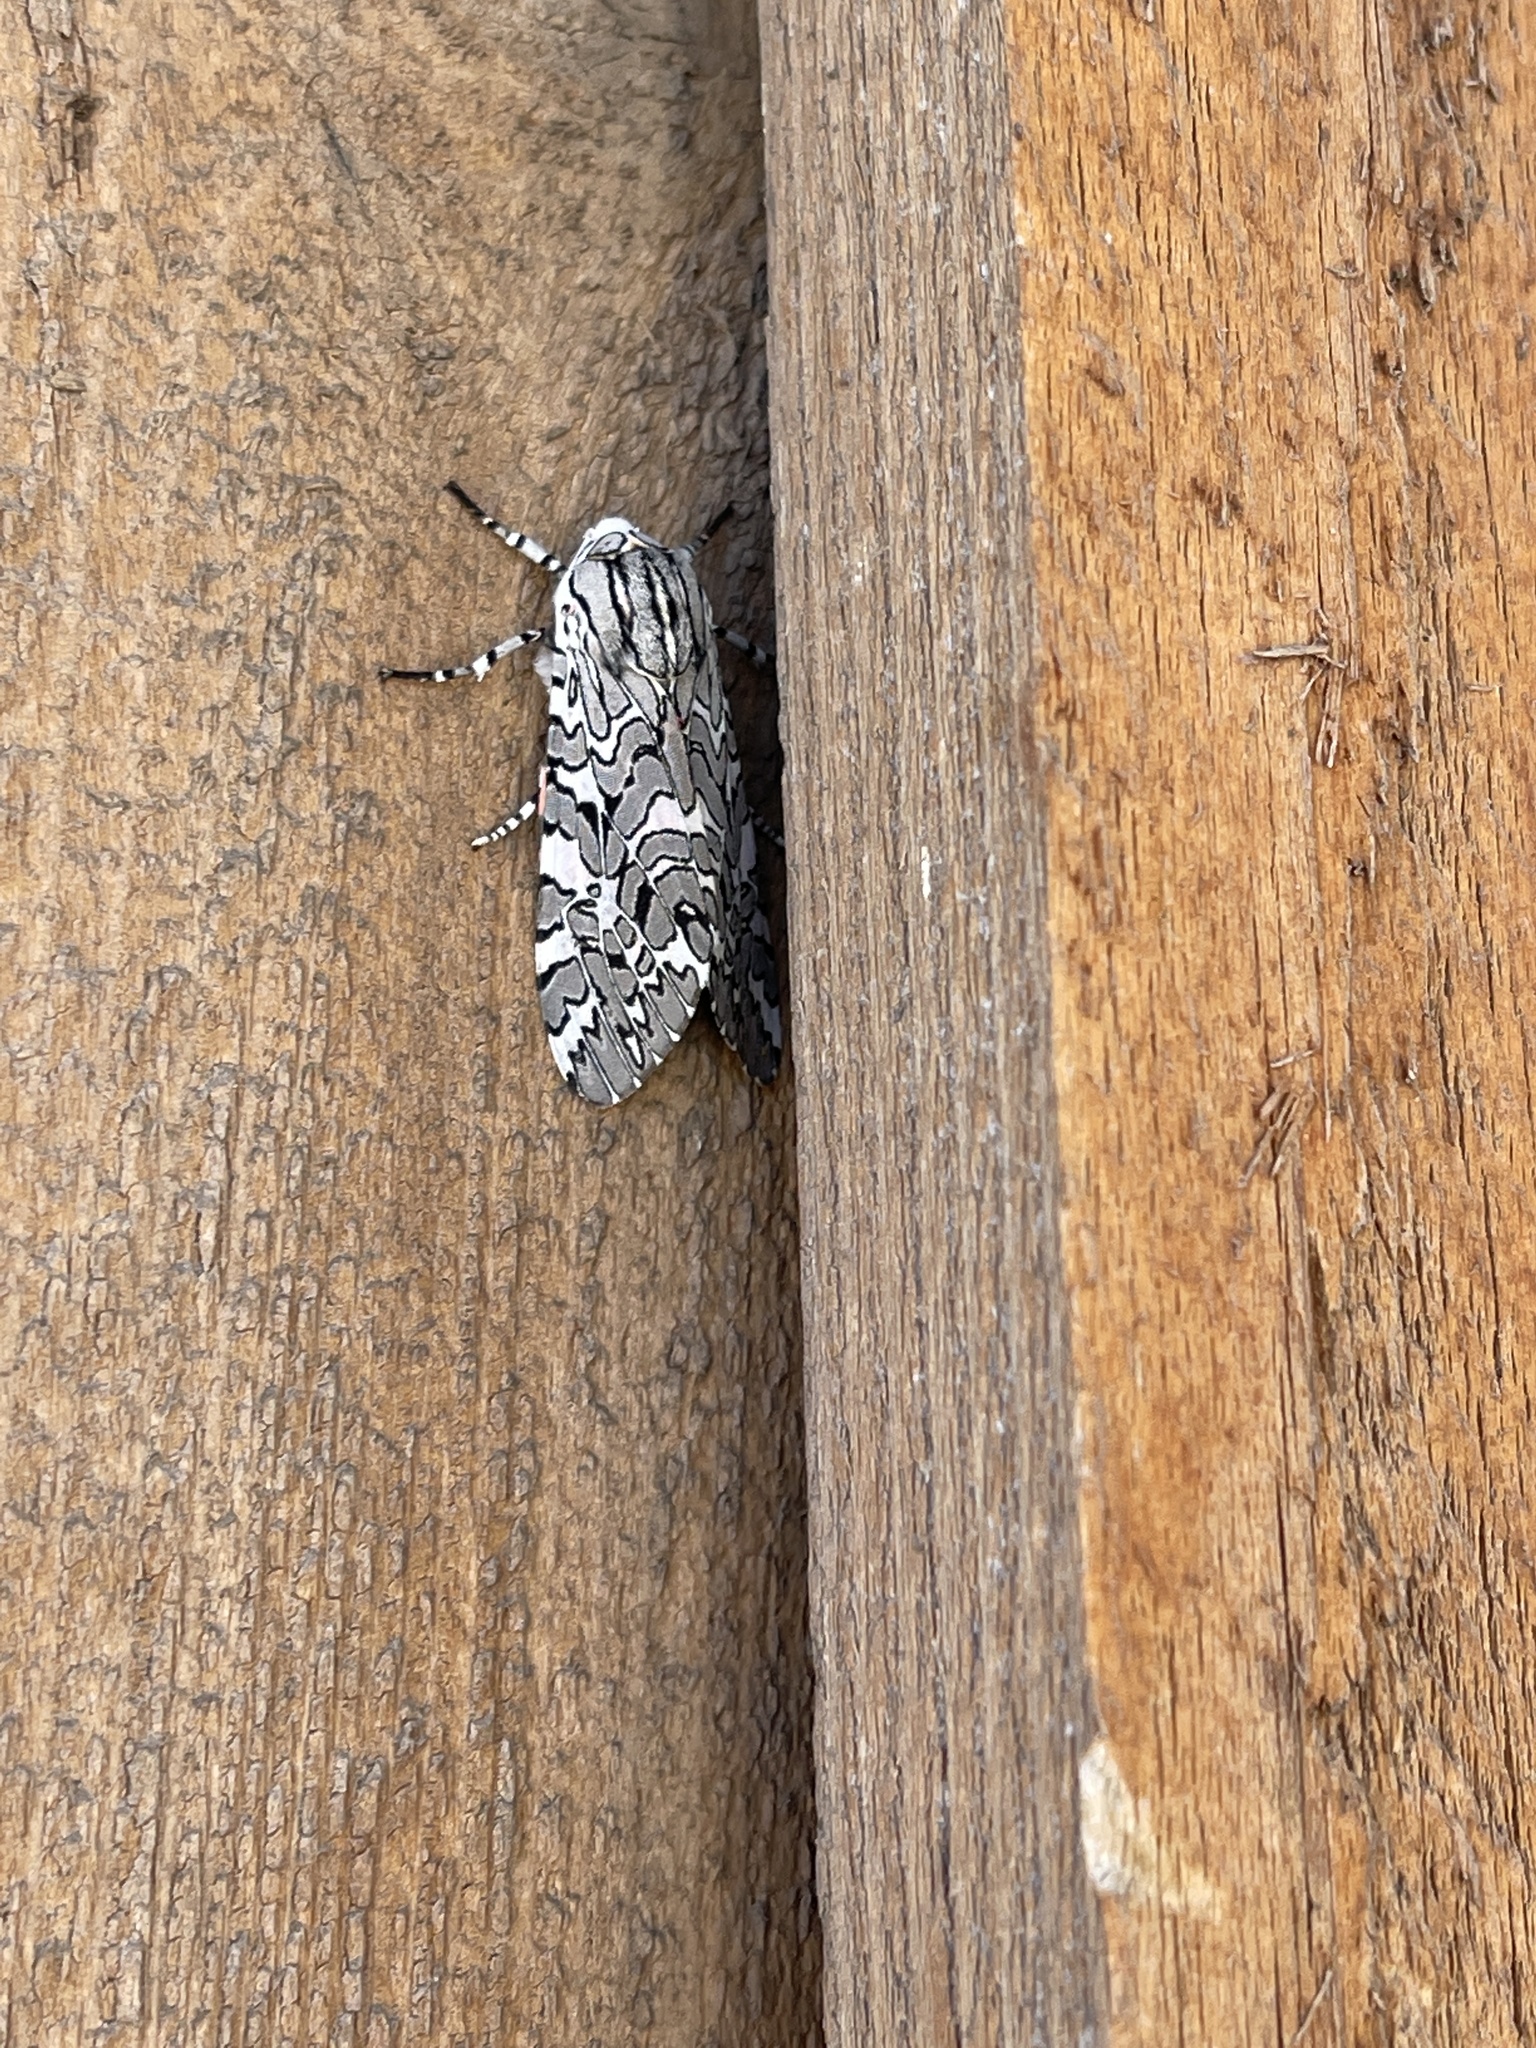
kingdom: Animalia
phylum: Arthropoda
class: Insecta
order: Lepidoptera
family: Erebidae
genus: Arachnis
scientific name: Arachnis picta
